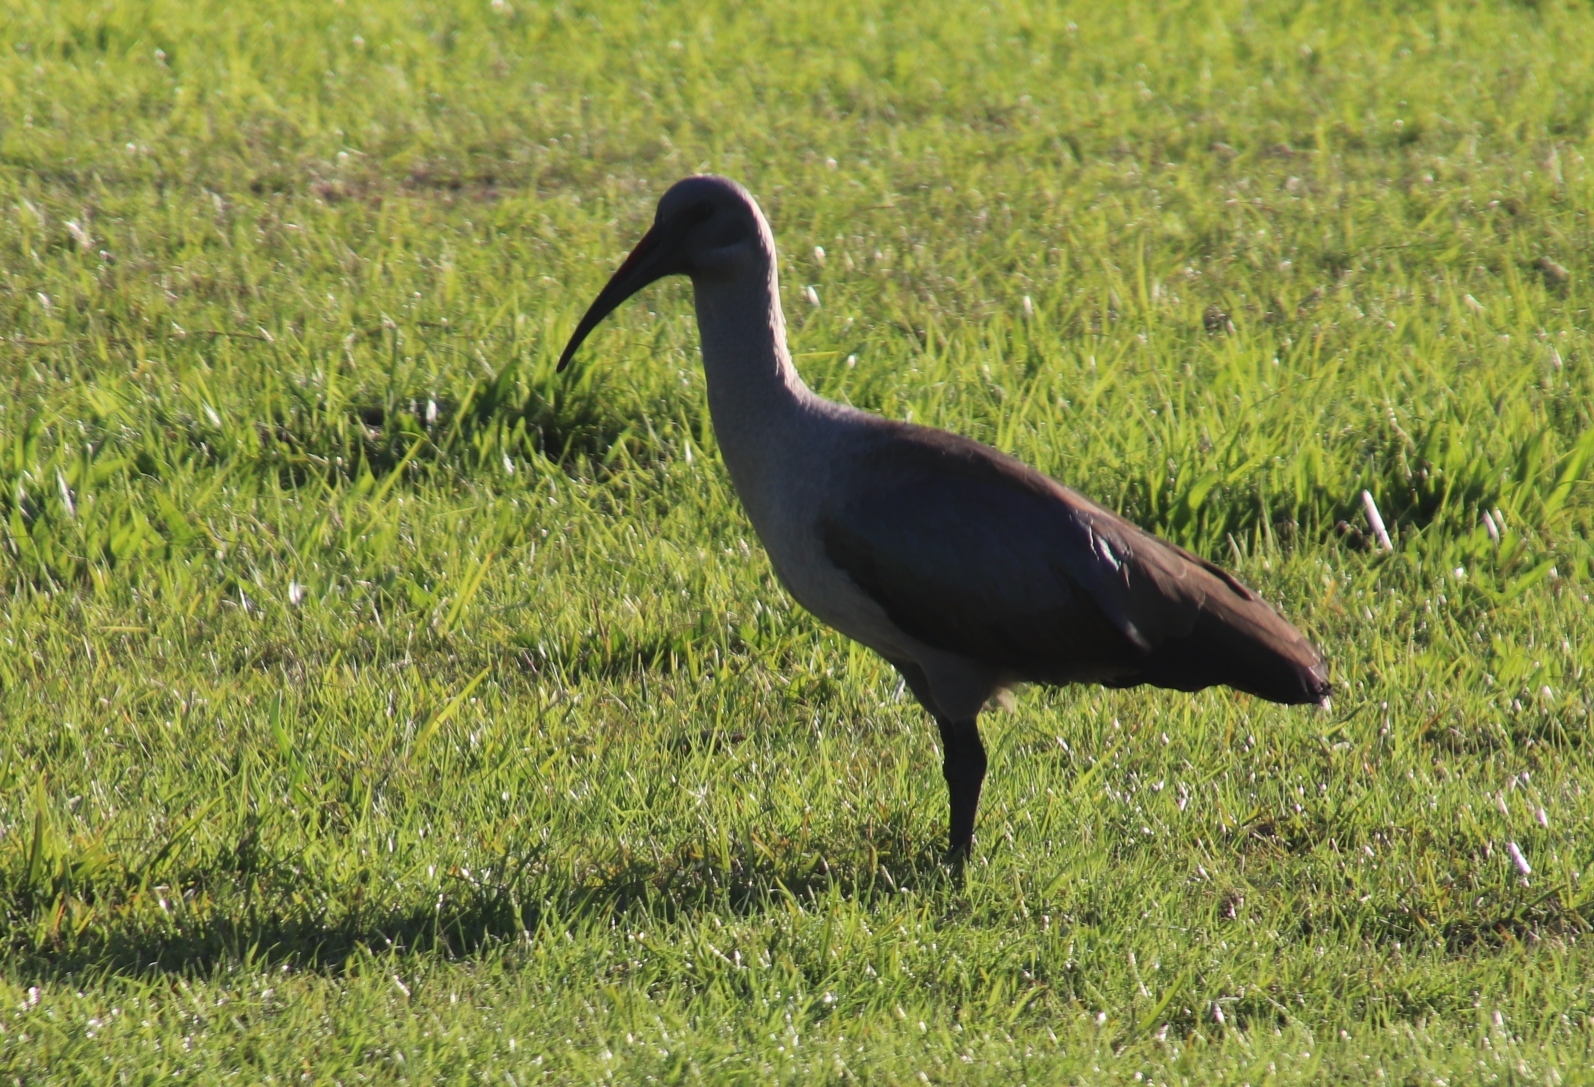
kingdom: Animalia
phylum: Chordata
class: Aves
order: Pelecaniformes
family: Threskiornithidae
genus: Bostrychia
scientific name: Bostrychia hagedash
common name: Hadada ibis
